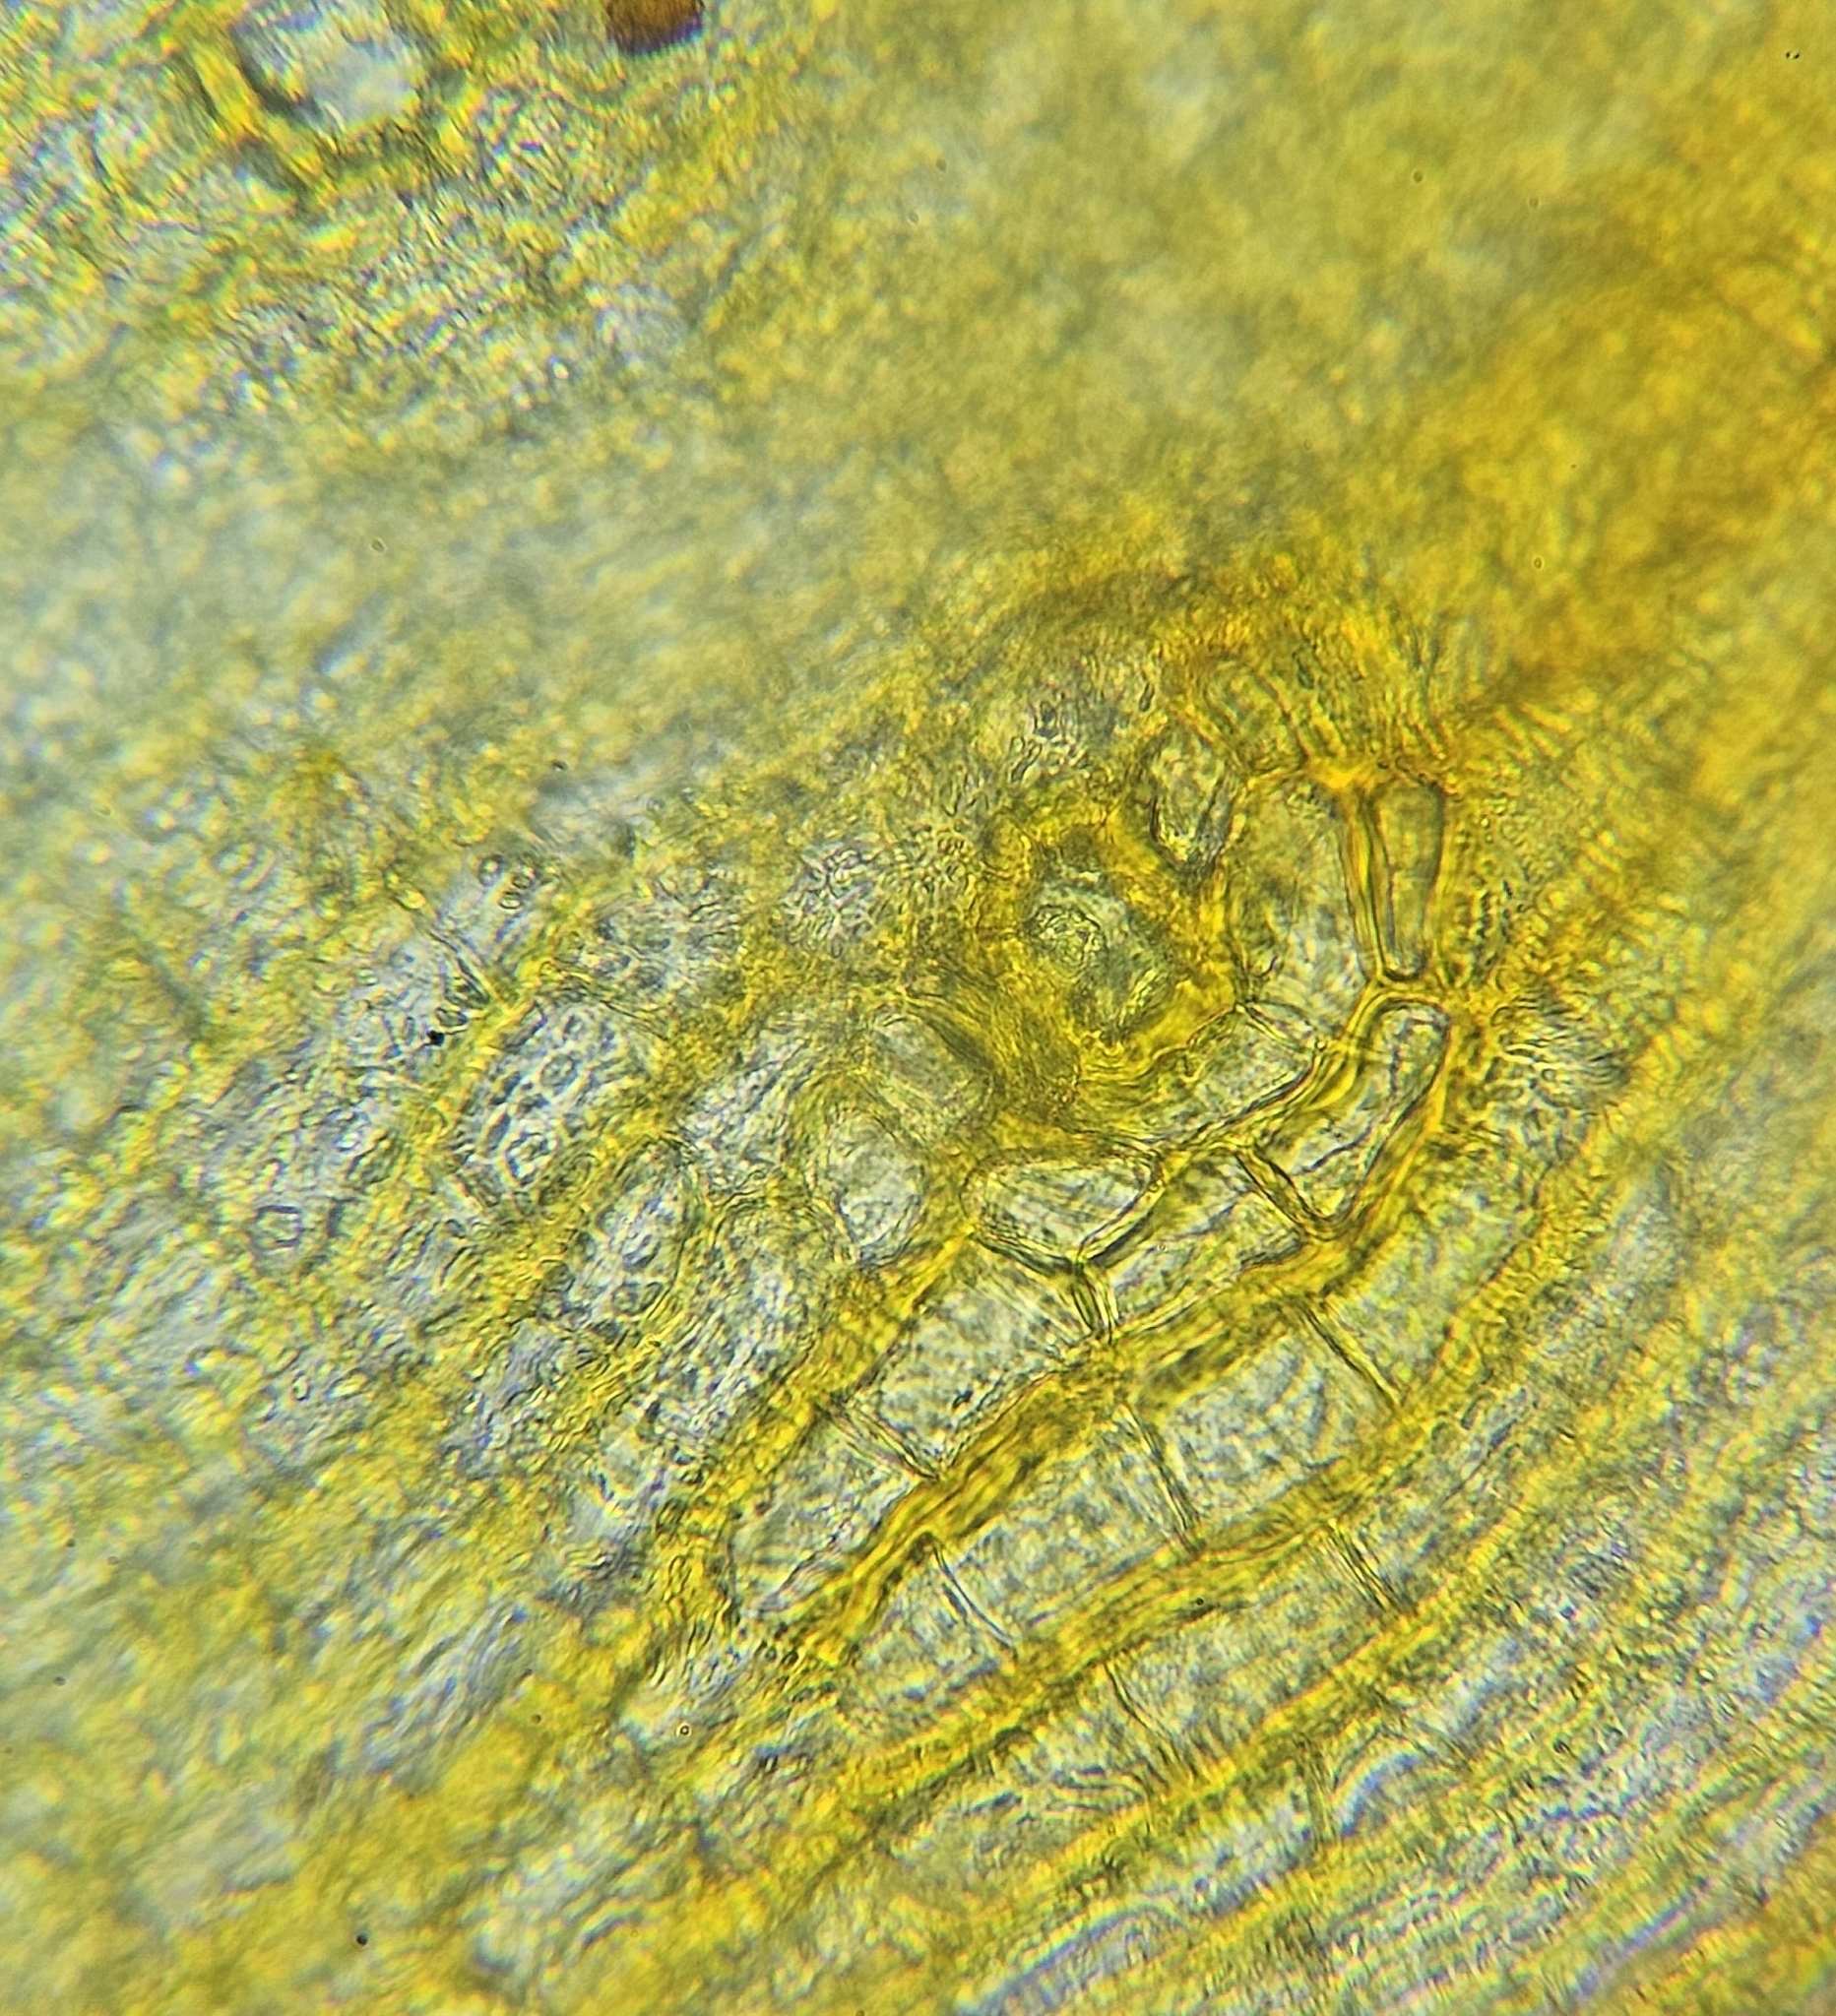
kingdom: Plantae
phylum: Bryophyta
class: Bryopsida
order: Orthotrichales
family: Orthotrichaceae
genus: Orthotrichum
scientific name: Orthotrichum cupulatum
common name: Hooded bristle-moss
